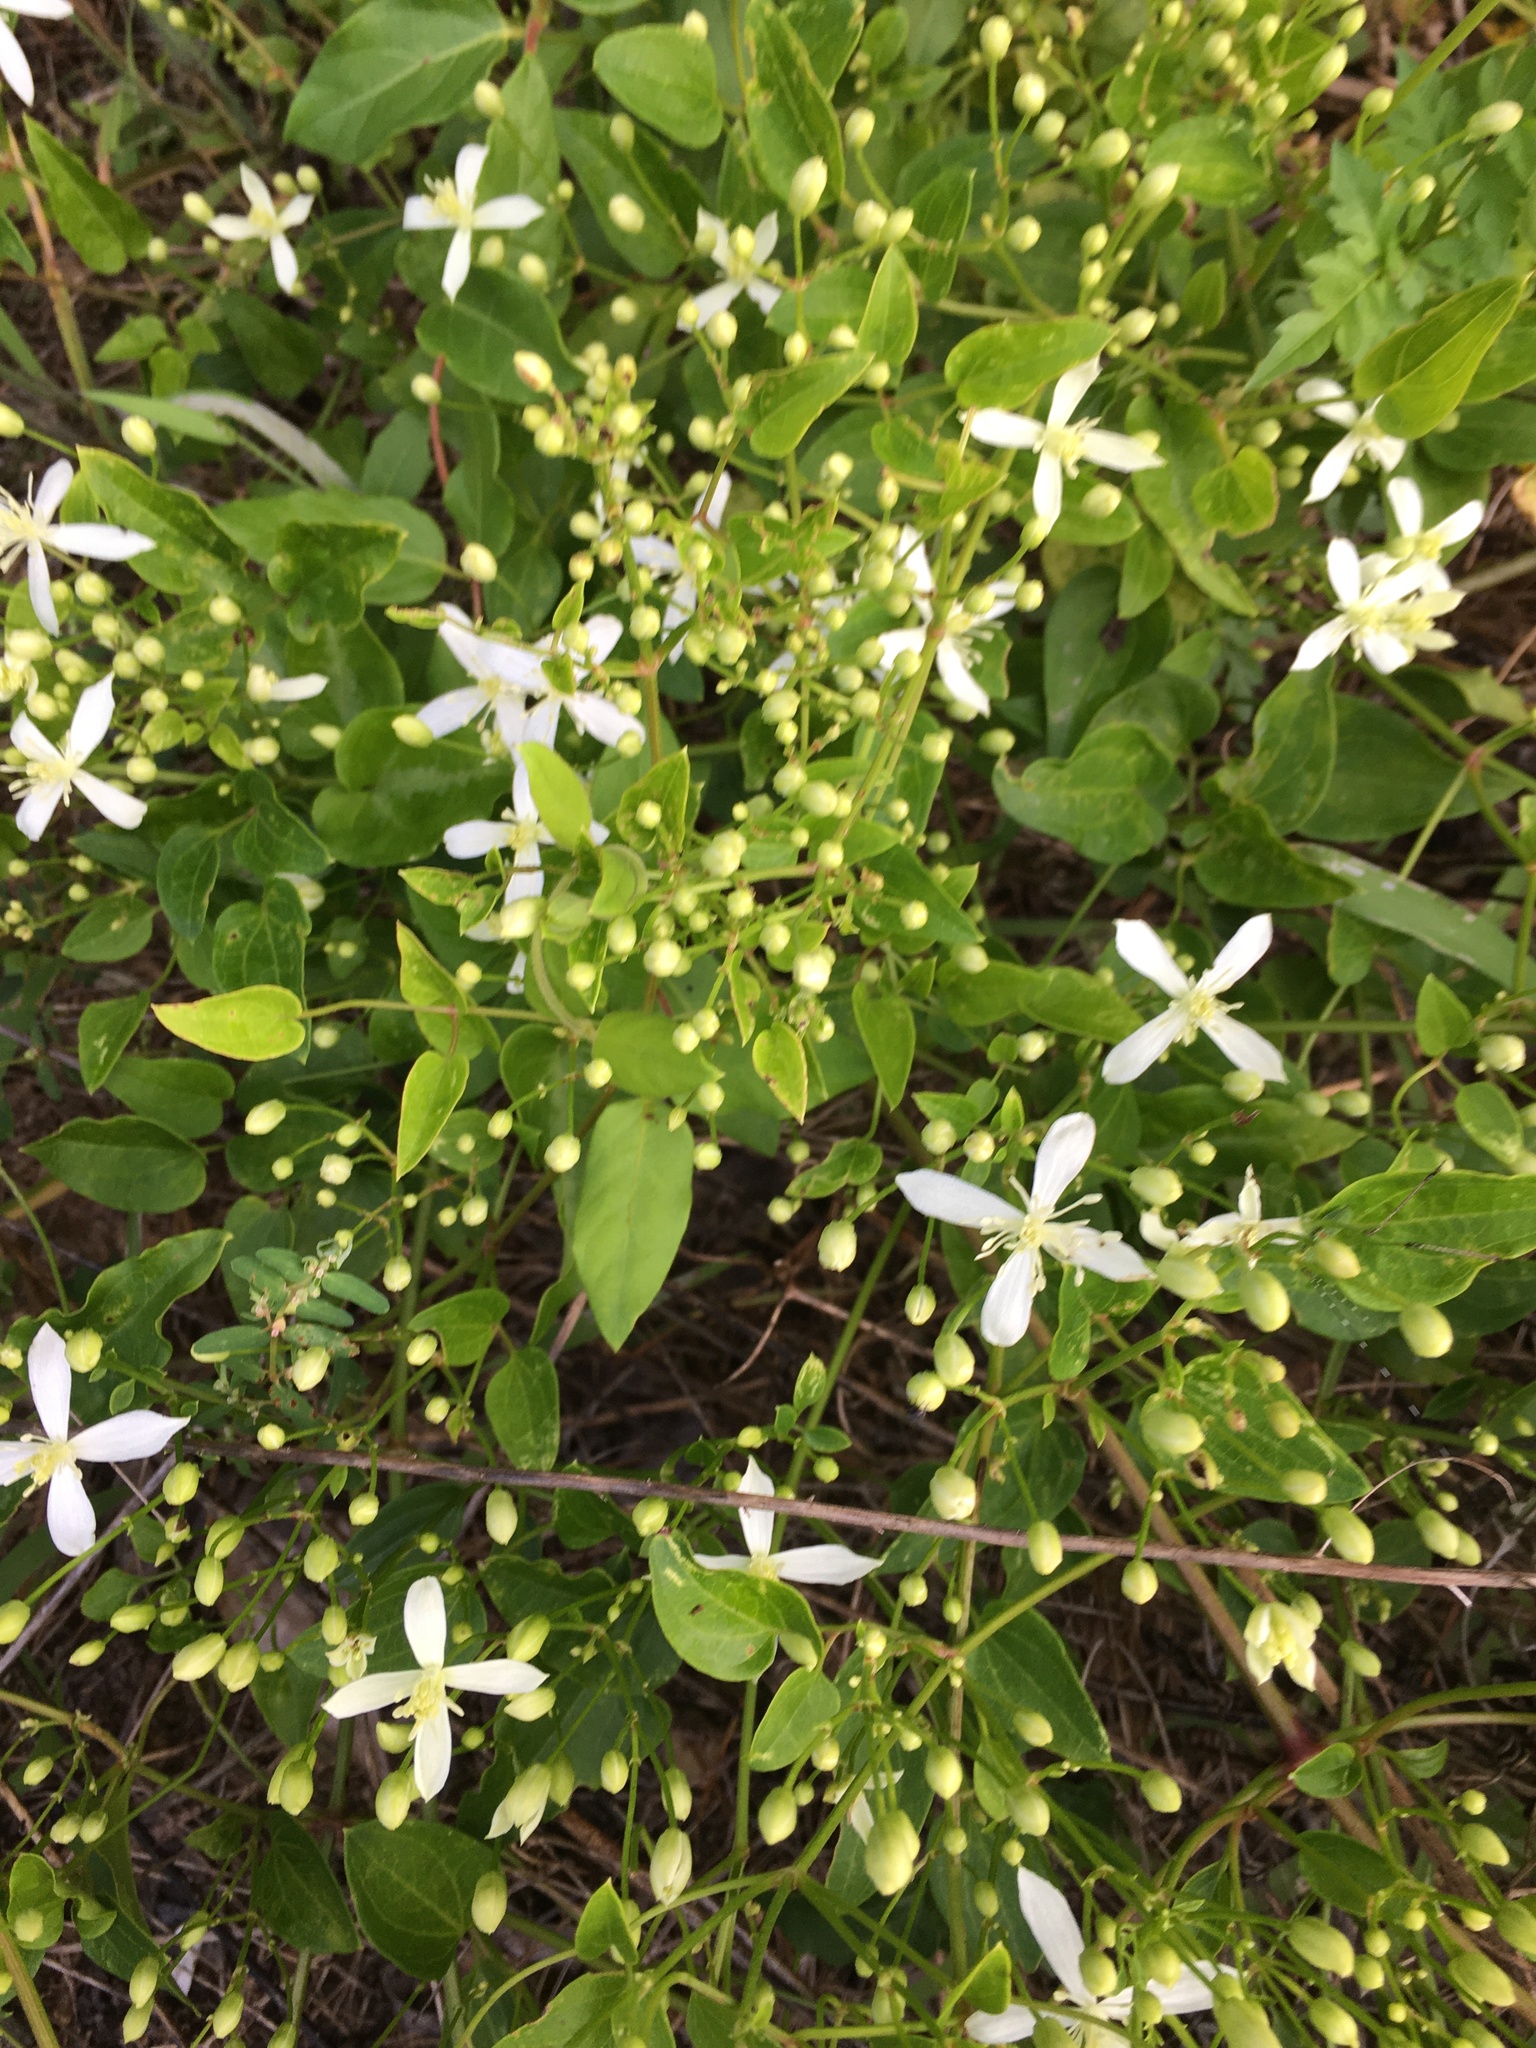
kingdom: Plantae
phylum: Tracheophyta
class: Magnoliopsida
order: Ranunculales
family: Ranunculaceae
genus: Clematis
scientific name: Clematis terniflora
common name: Sweet autumn clematis
